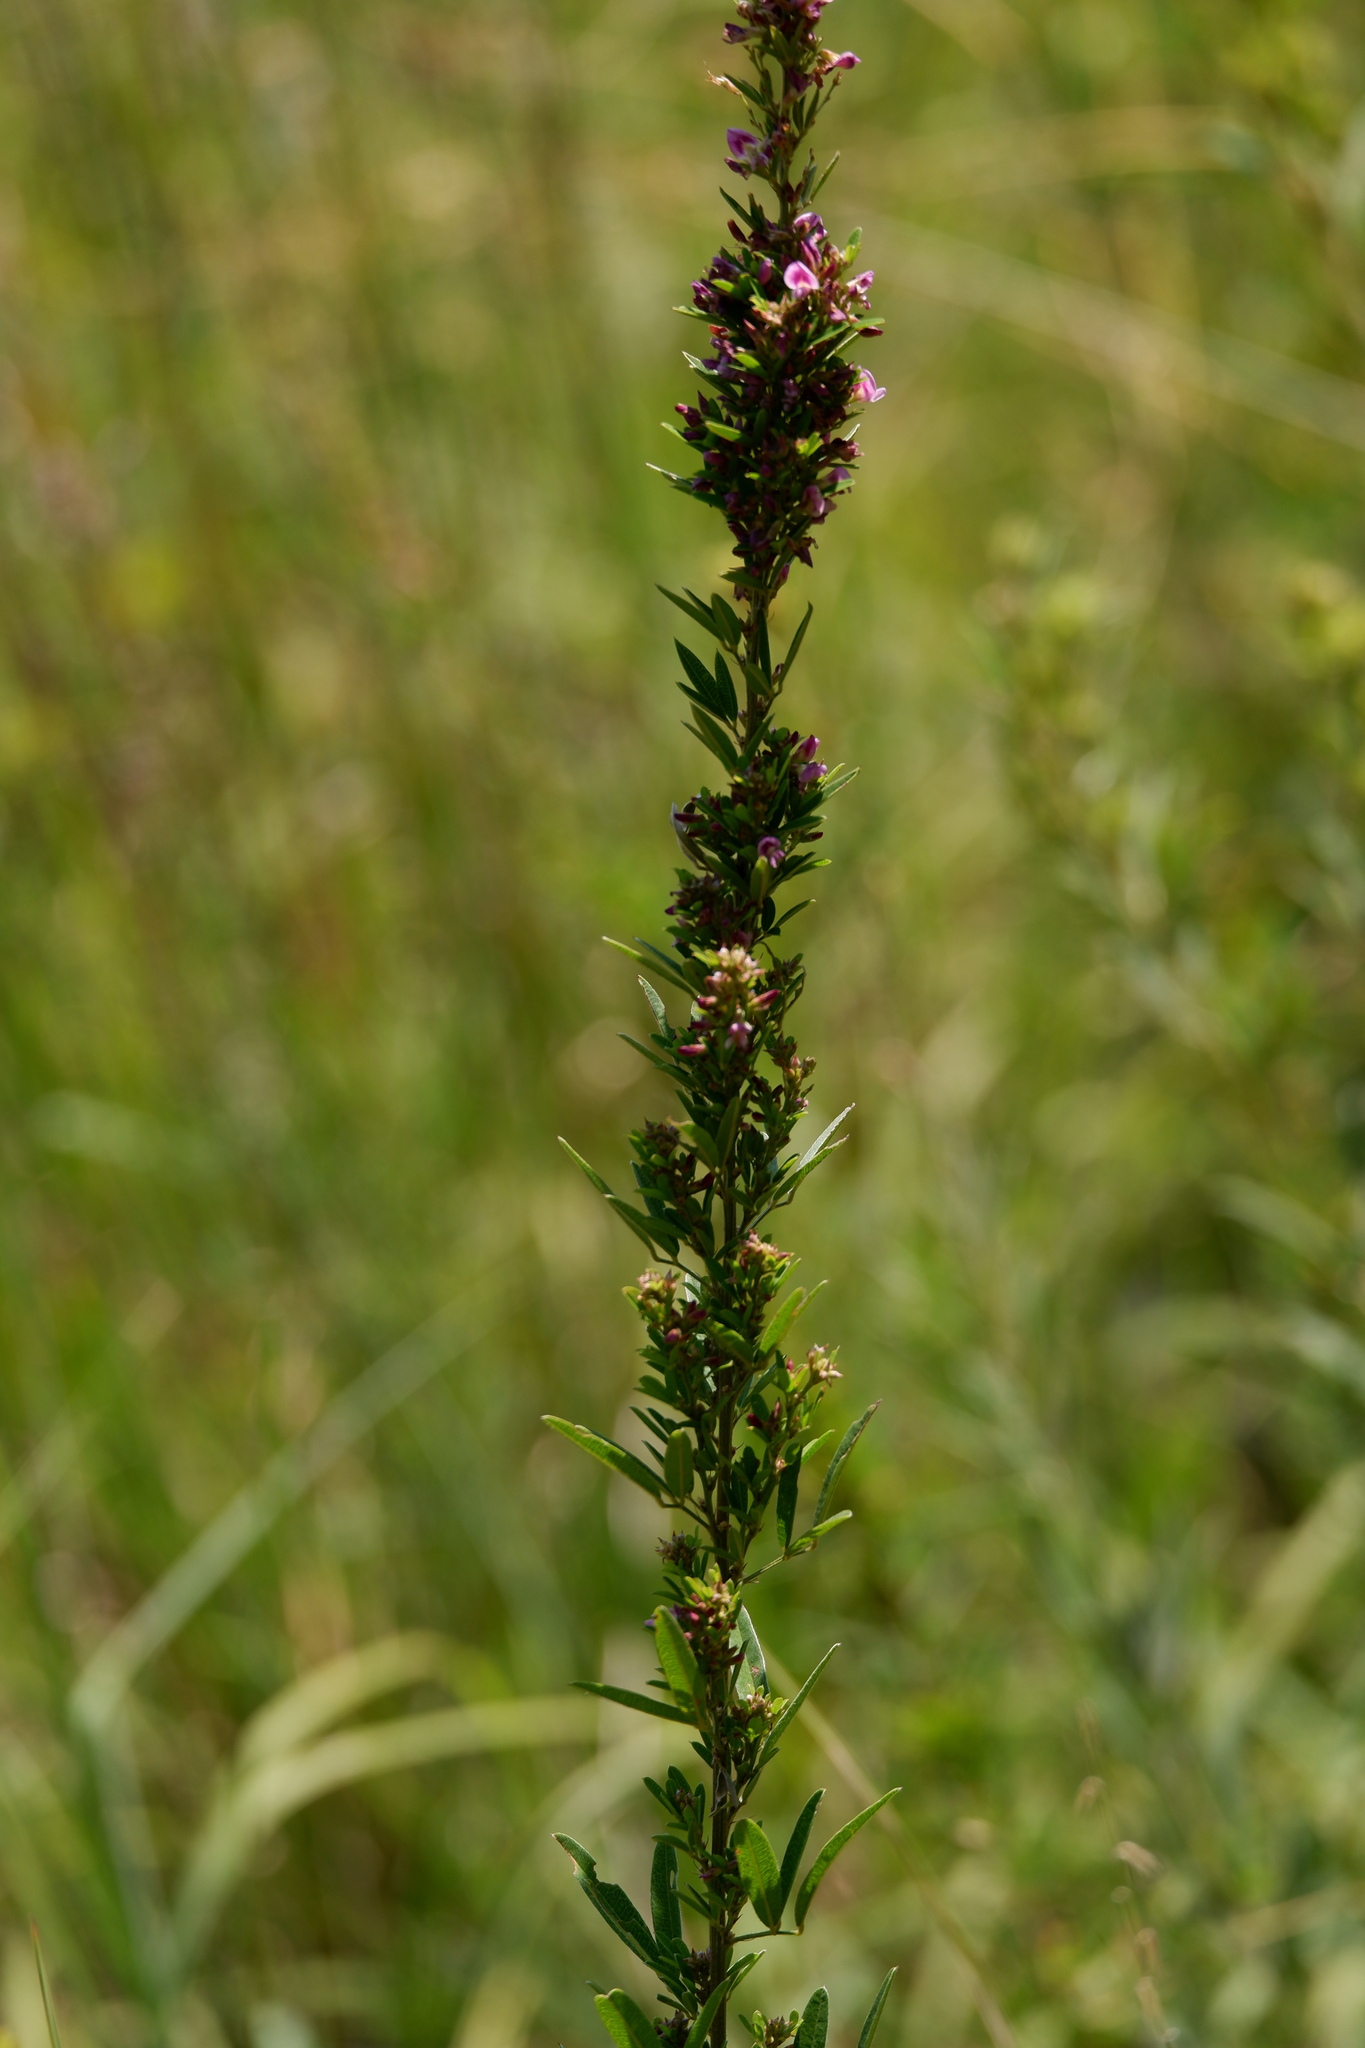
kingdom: Plantae
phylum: Tracheophyta
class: Magnoliopsida
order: Fabales
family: Fabaceae
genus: Lespedeza
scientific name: Lespedeza virginica
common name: Slender bush-clover
